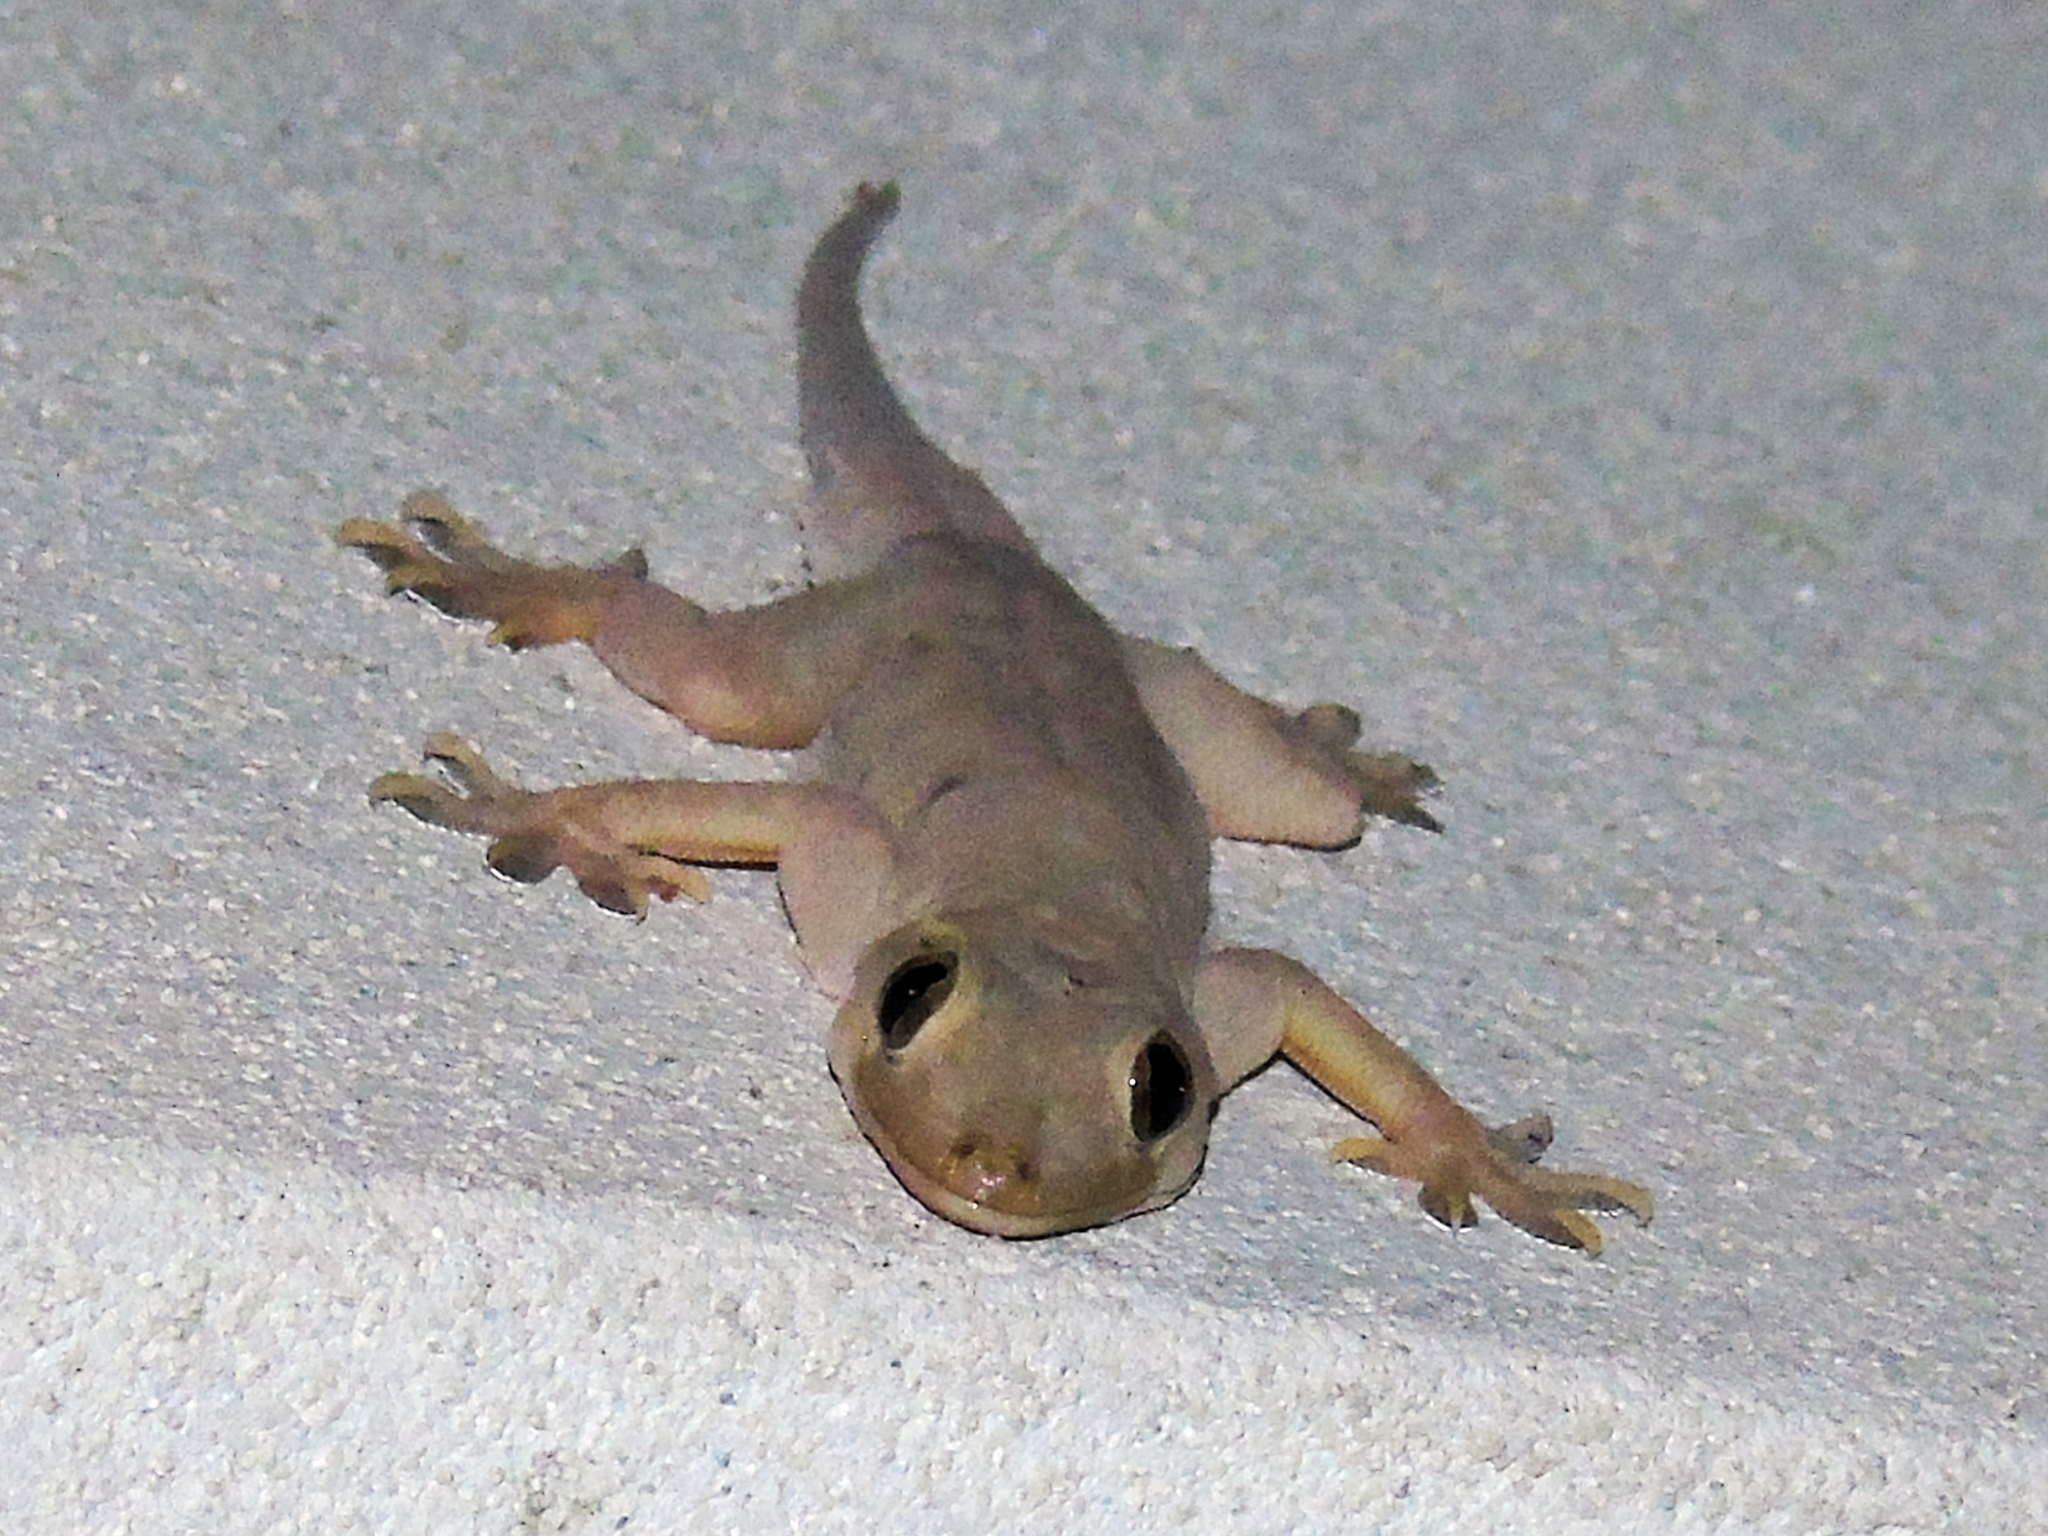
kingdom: Animalia
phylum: Chordata
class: Squamata
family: Gekkonidae
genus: Hemidactylus
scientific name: Hemidactylus flaviviridis
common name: Northern house gecko
